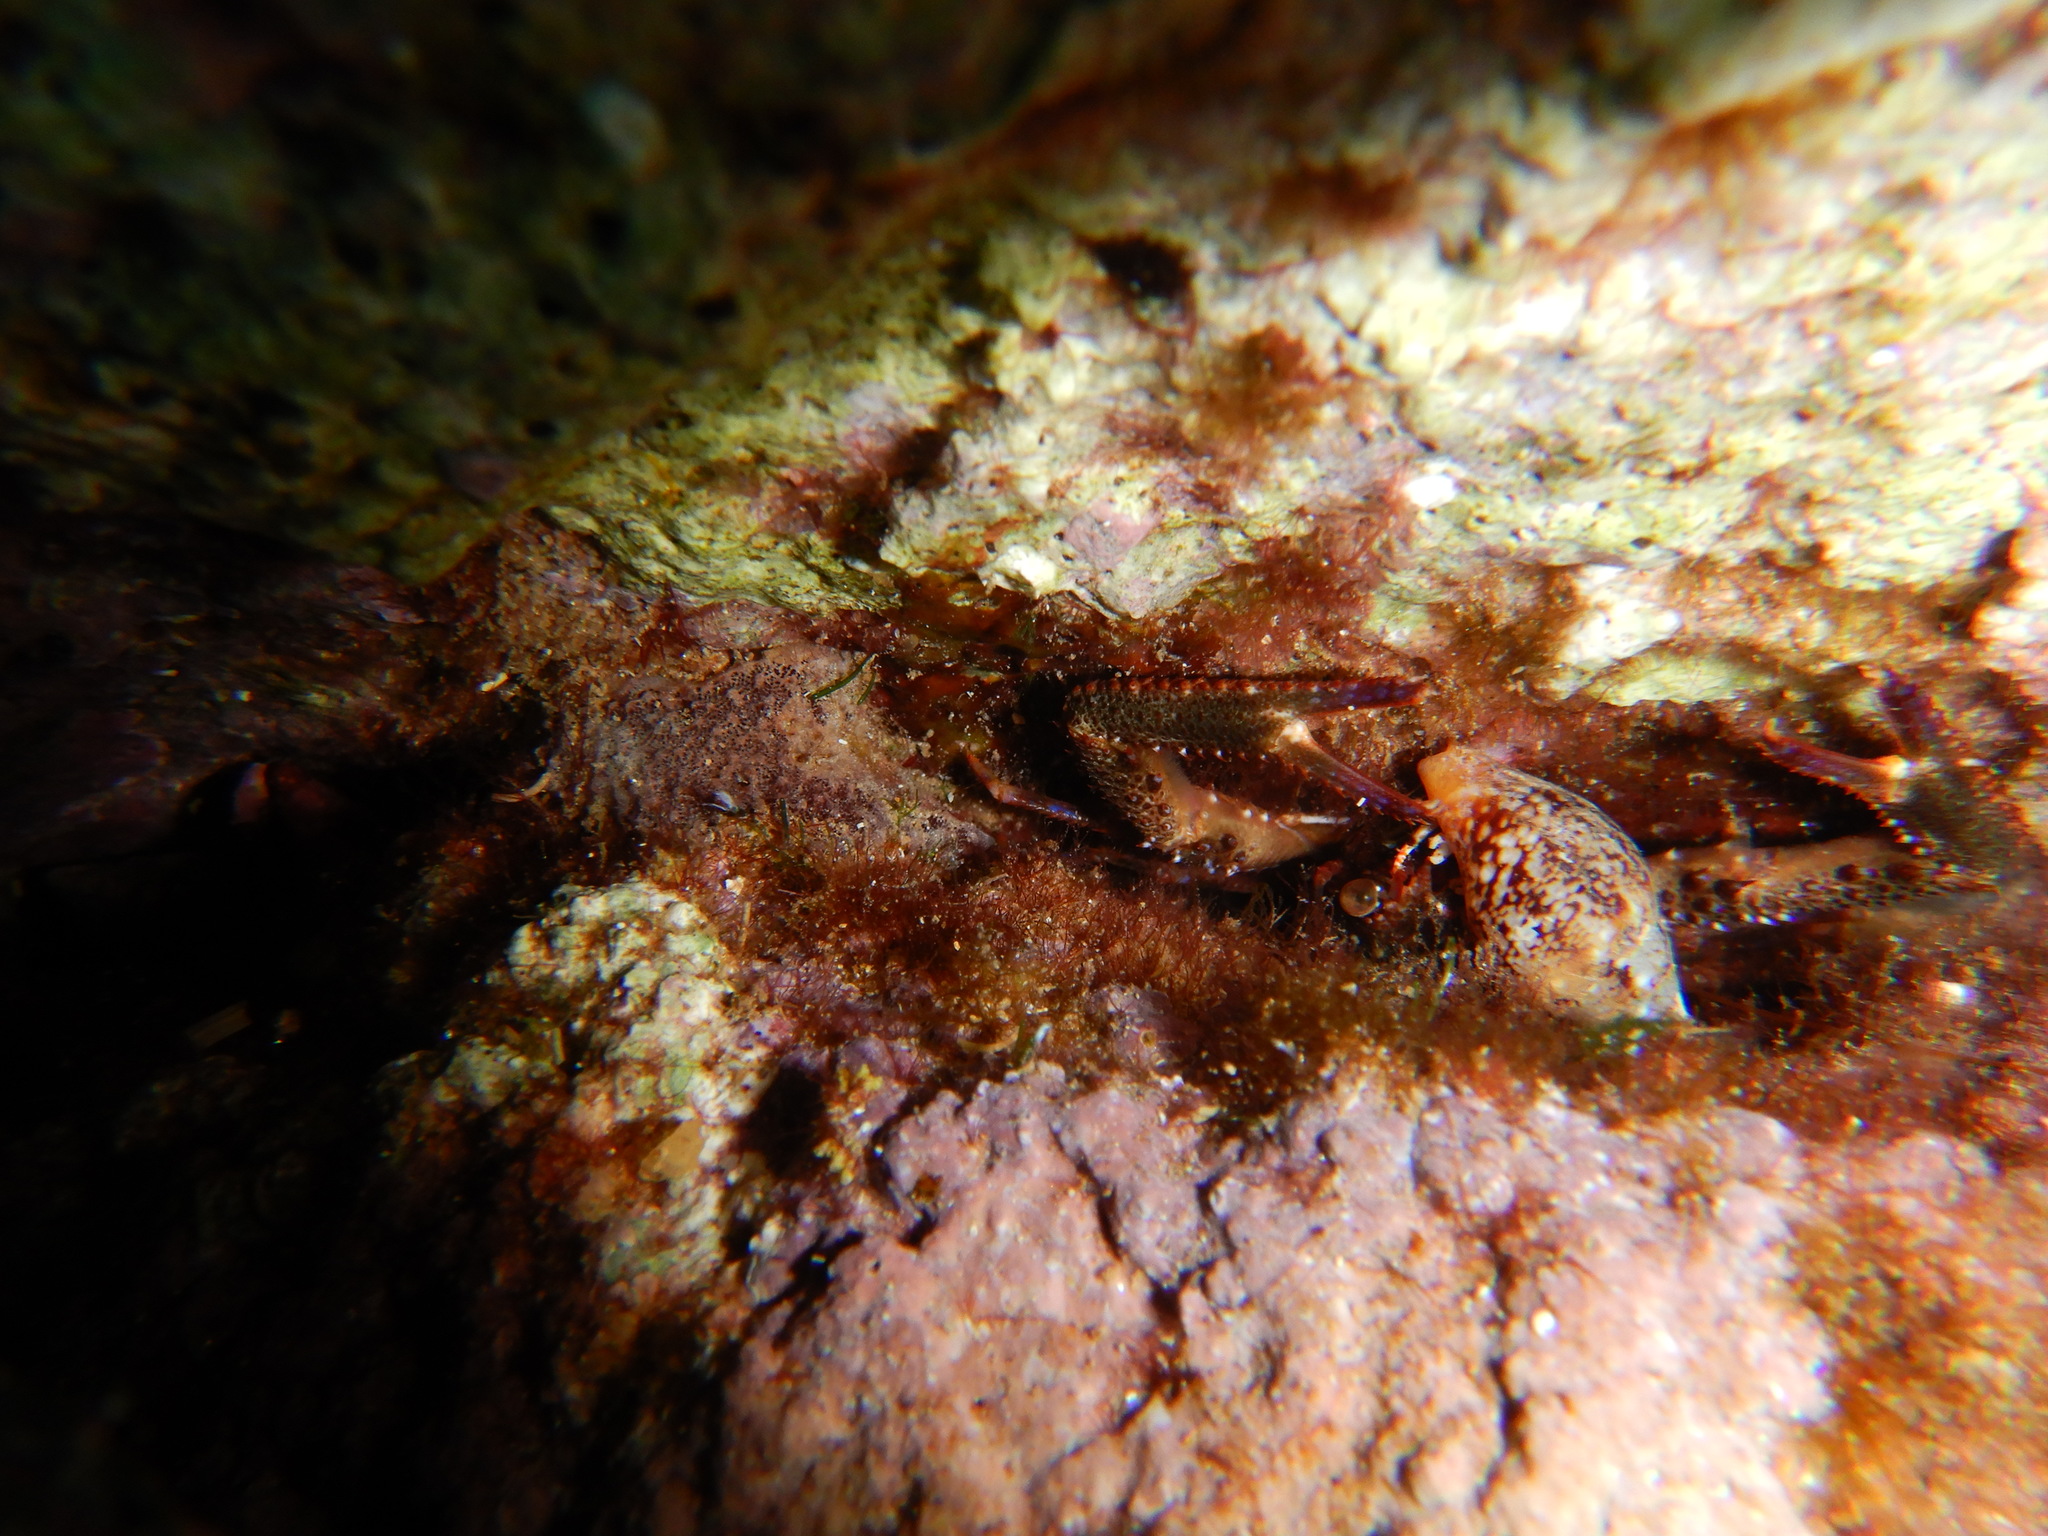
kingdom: Animalia
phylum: Mollusca
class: Gastropoda
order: Neogastropoda
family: Columbellidae
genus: Columbella
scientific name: Columbella rustica
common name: Rustic dove shell
